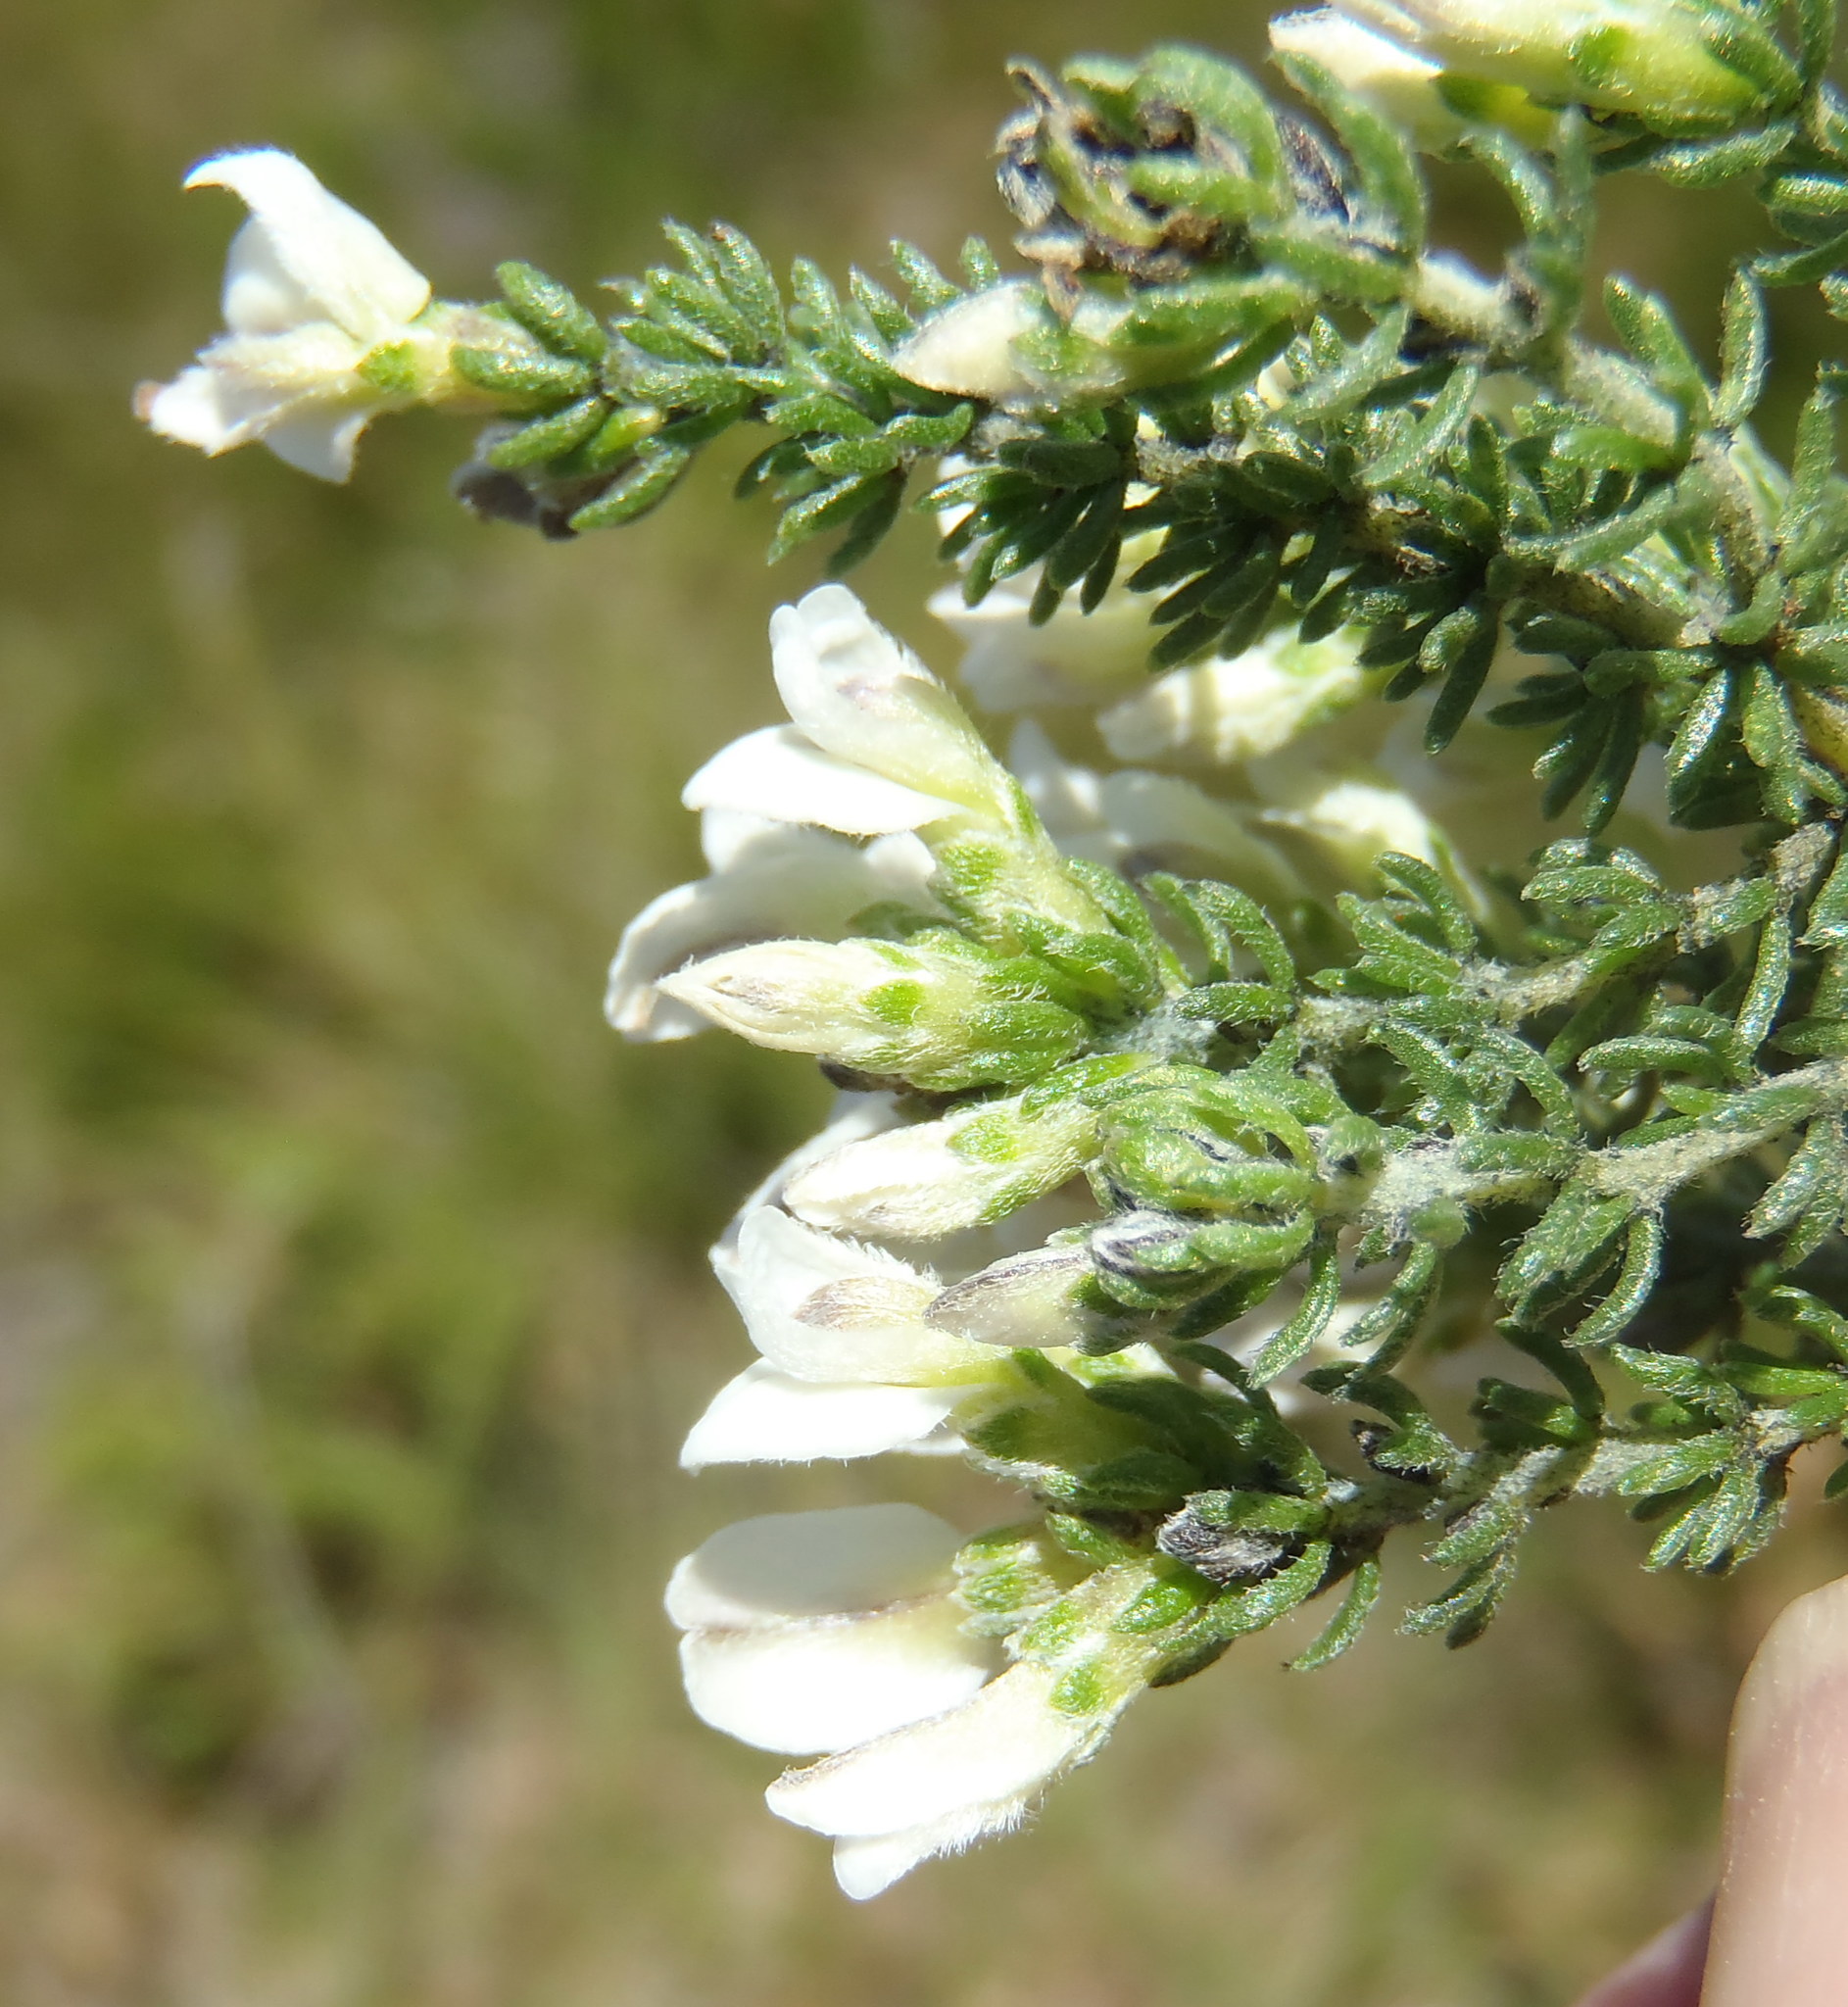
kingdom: Plantae
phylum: Tracheophyta
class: Magnoliopsida
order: Fabales
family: Fabaceae
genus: Aspalathus
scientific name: Aspalathus nigra
